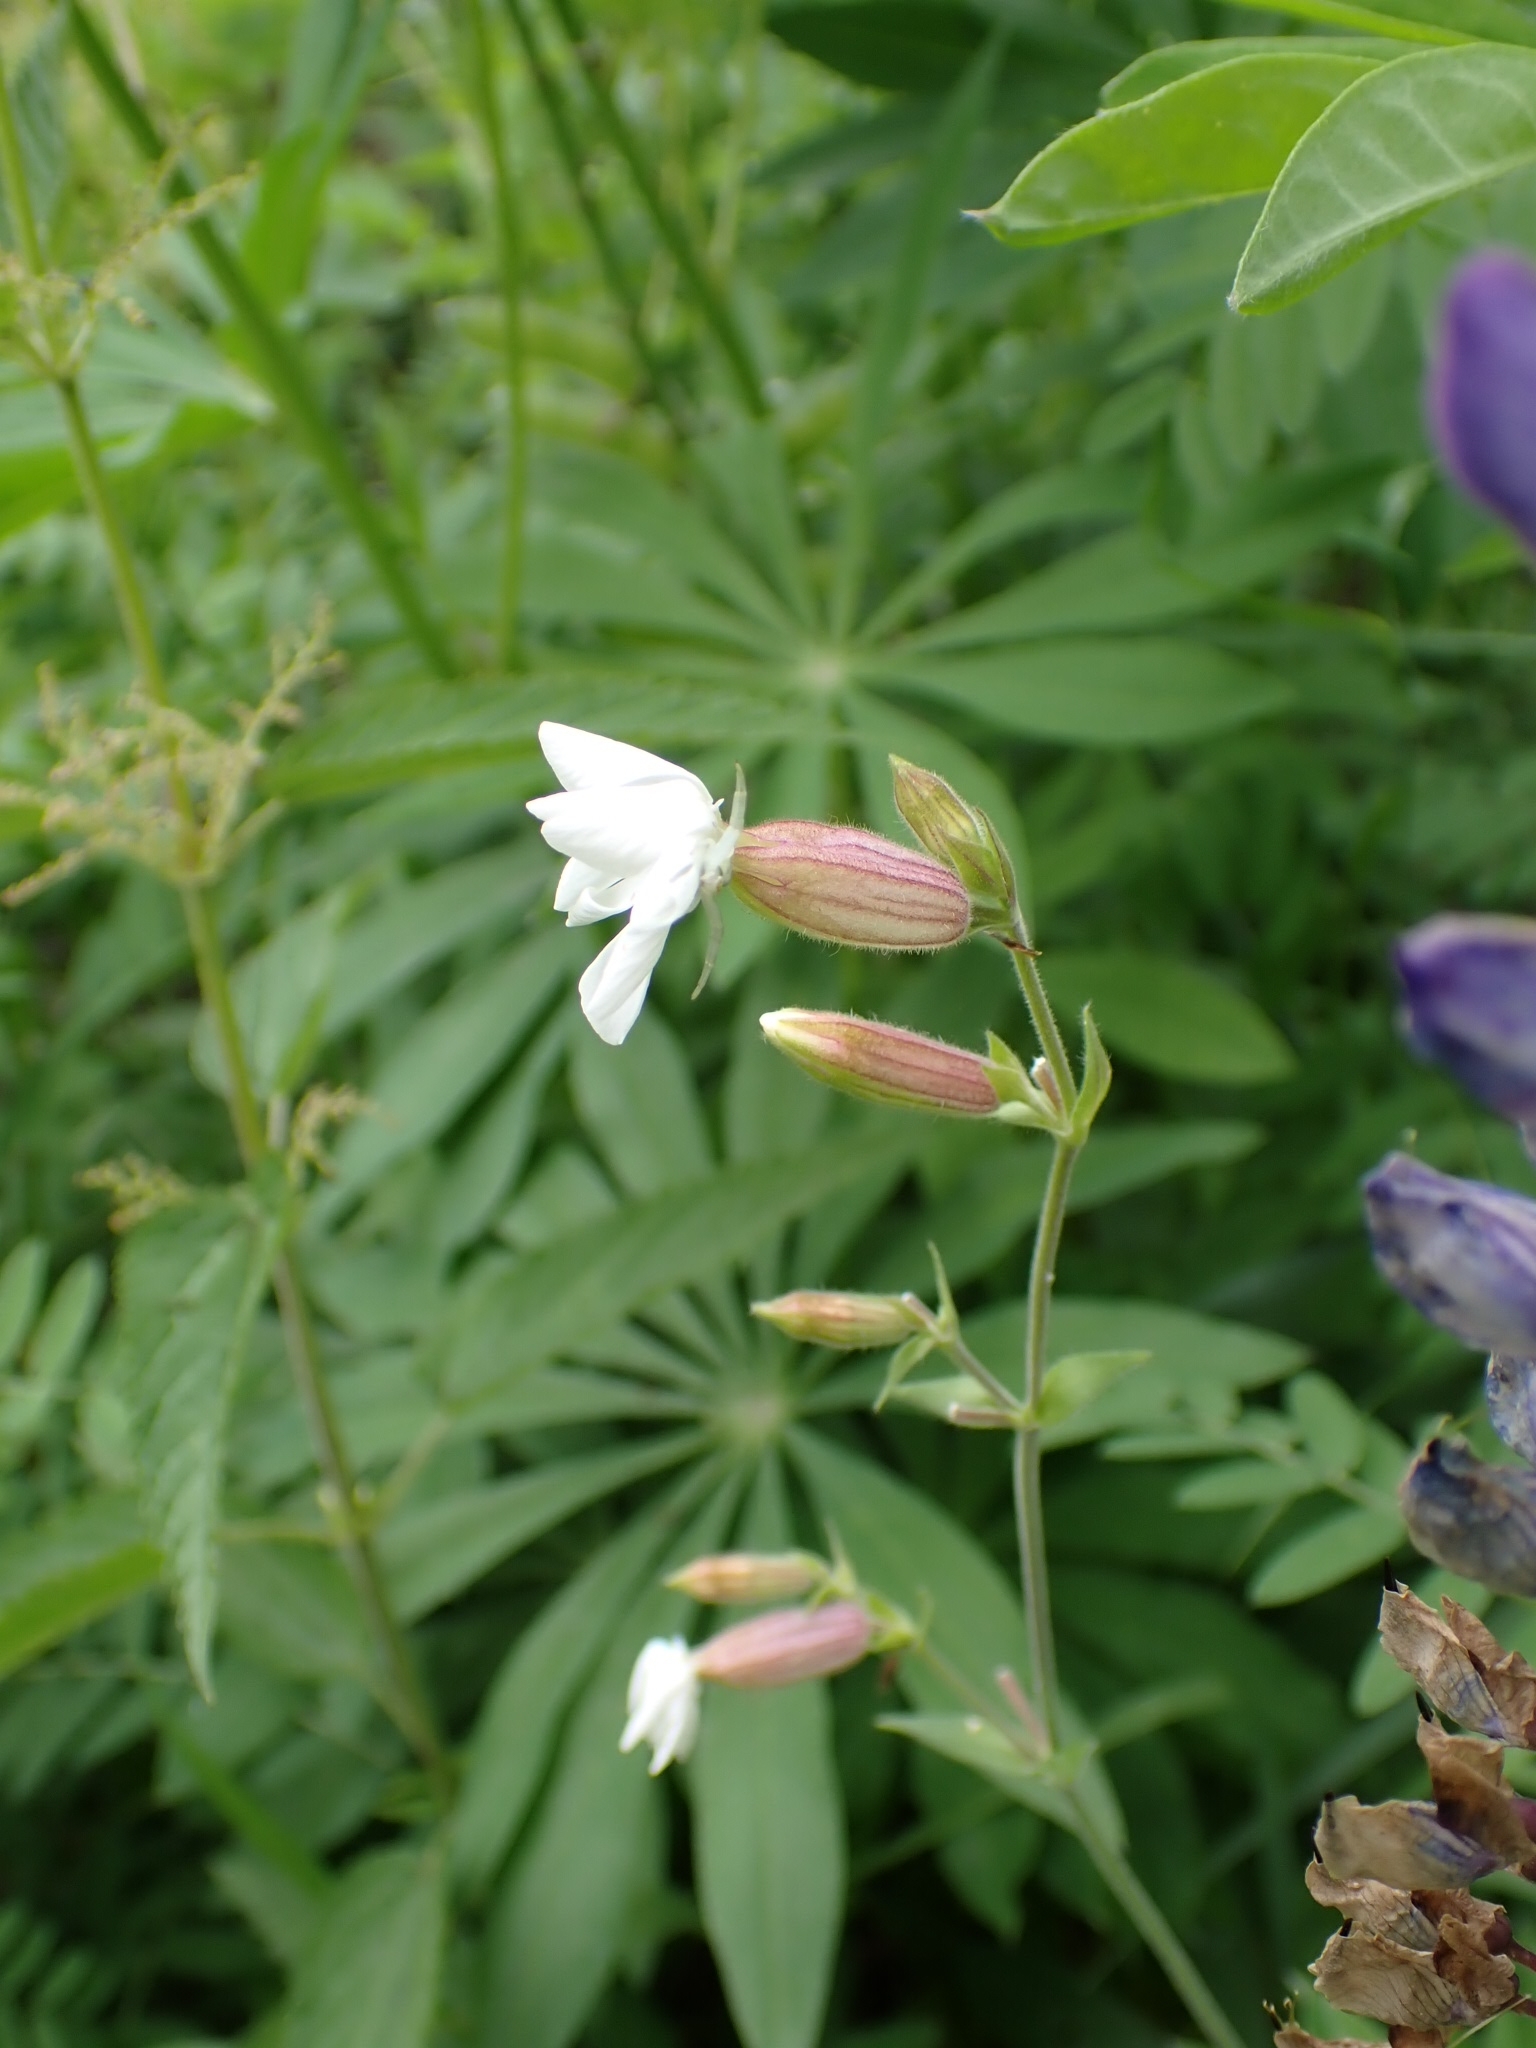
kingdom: Plantae
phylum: Tracheophyta
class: Magnoliopsida
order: Caryophyllales
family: Caryophyllaceae
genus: Silene
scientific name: Silene latifolia
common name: White campion
